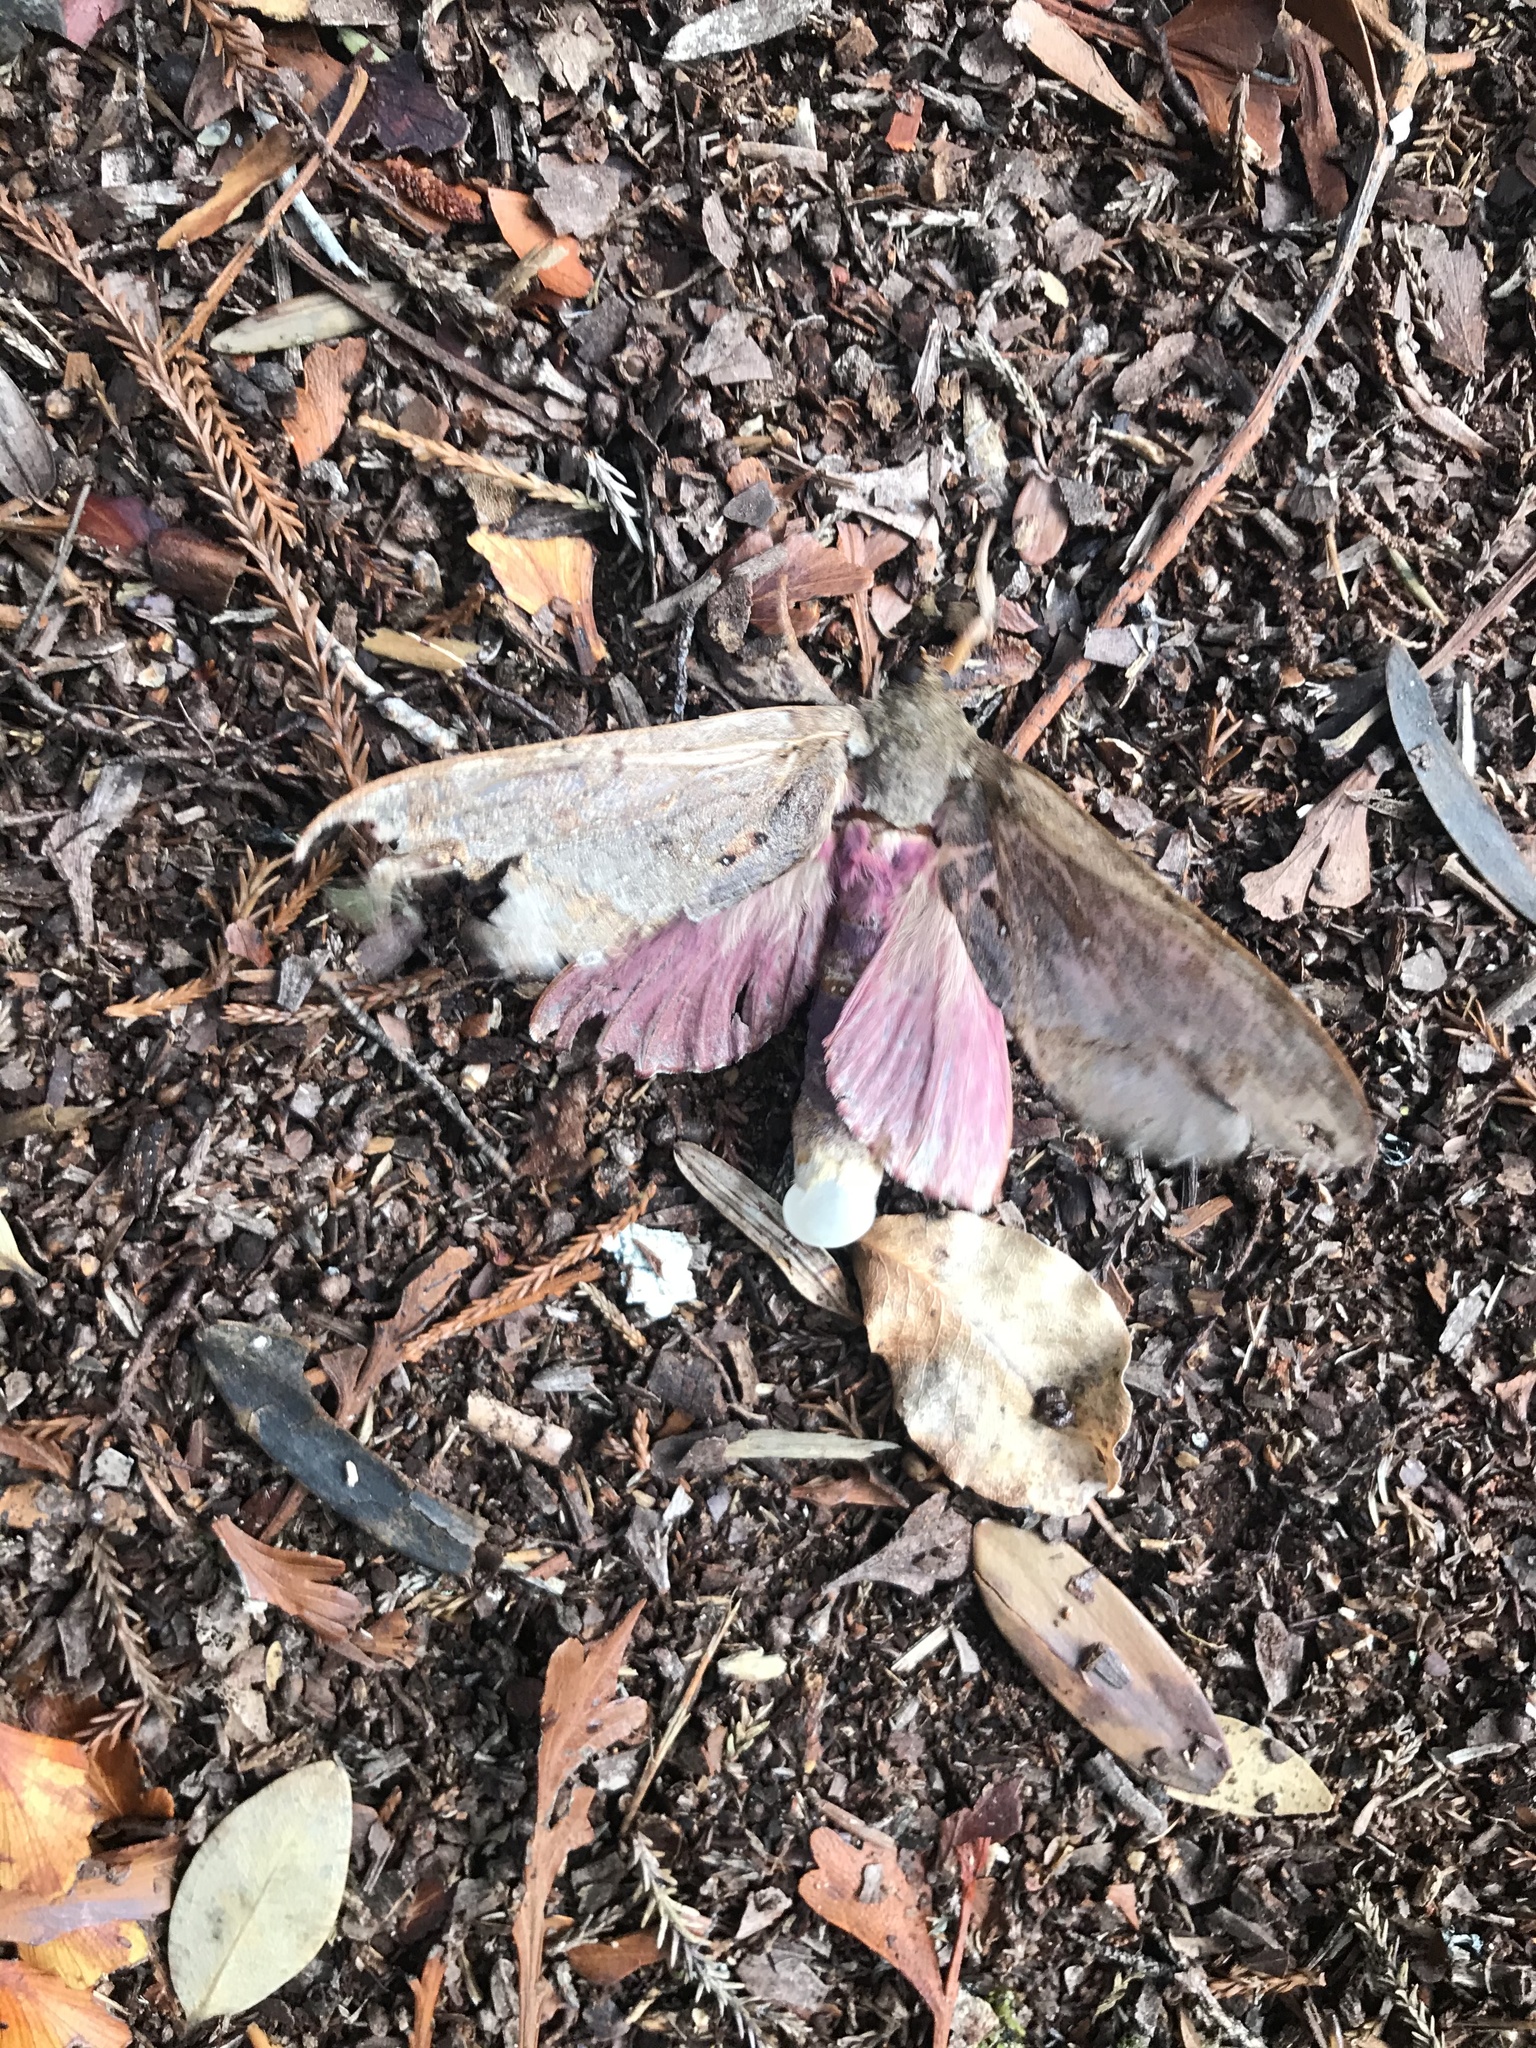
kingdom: Animalia
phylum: Arthropoda
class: Insecta
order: Lepidoptera
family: Hepialidae
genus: Dumbletonius
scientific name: Dumbletonius unimaculata
